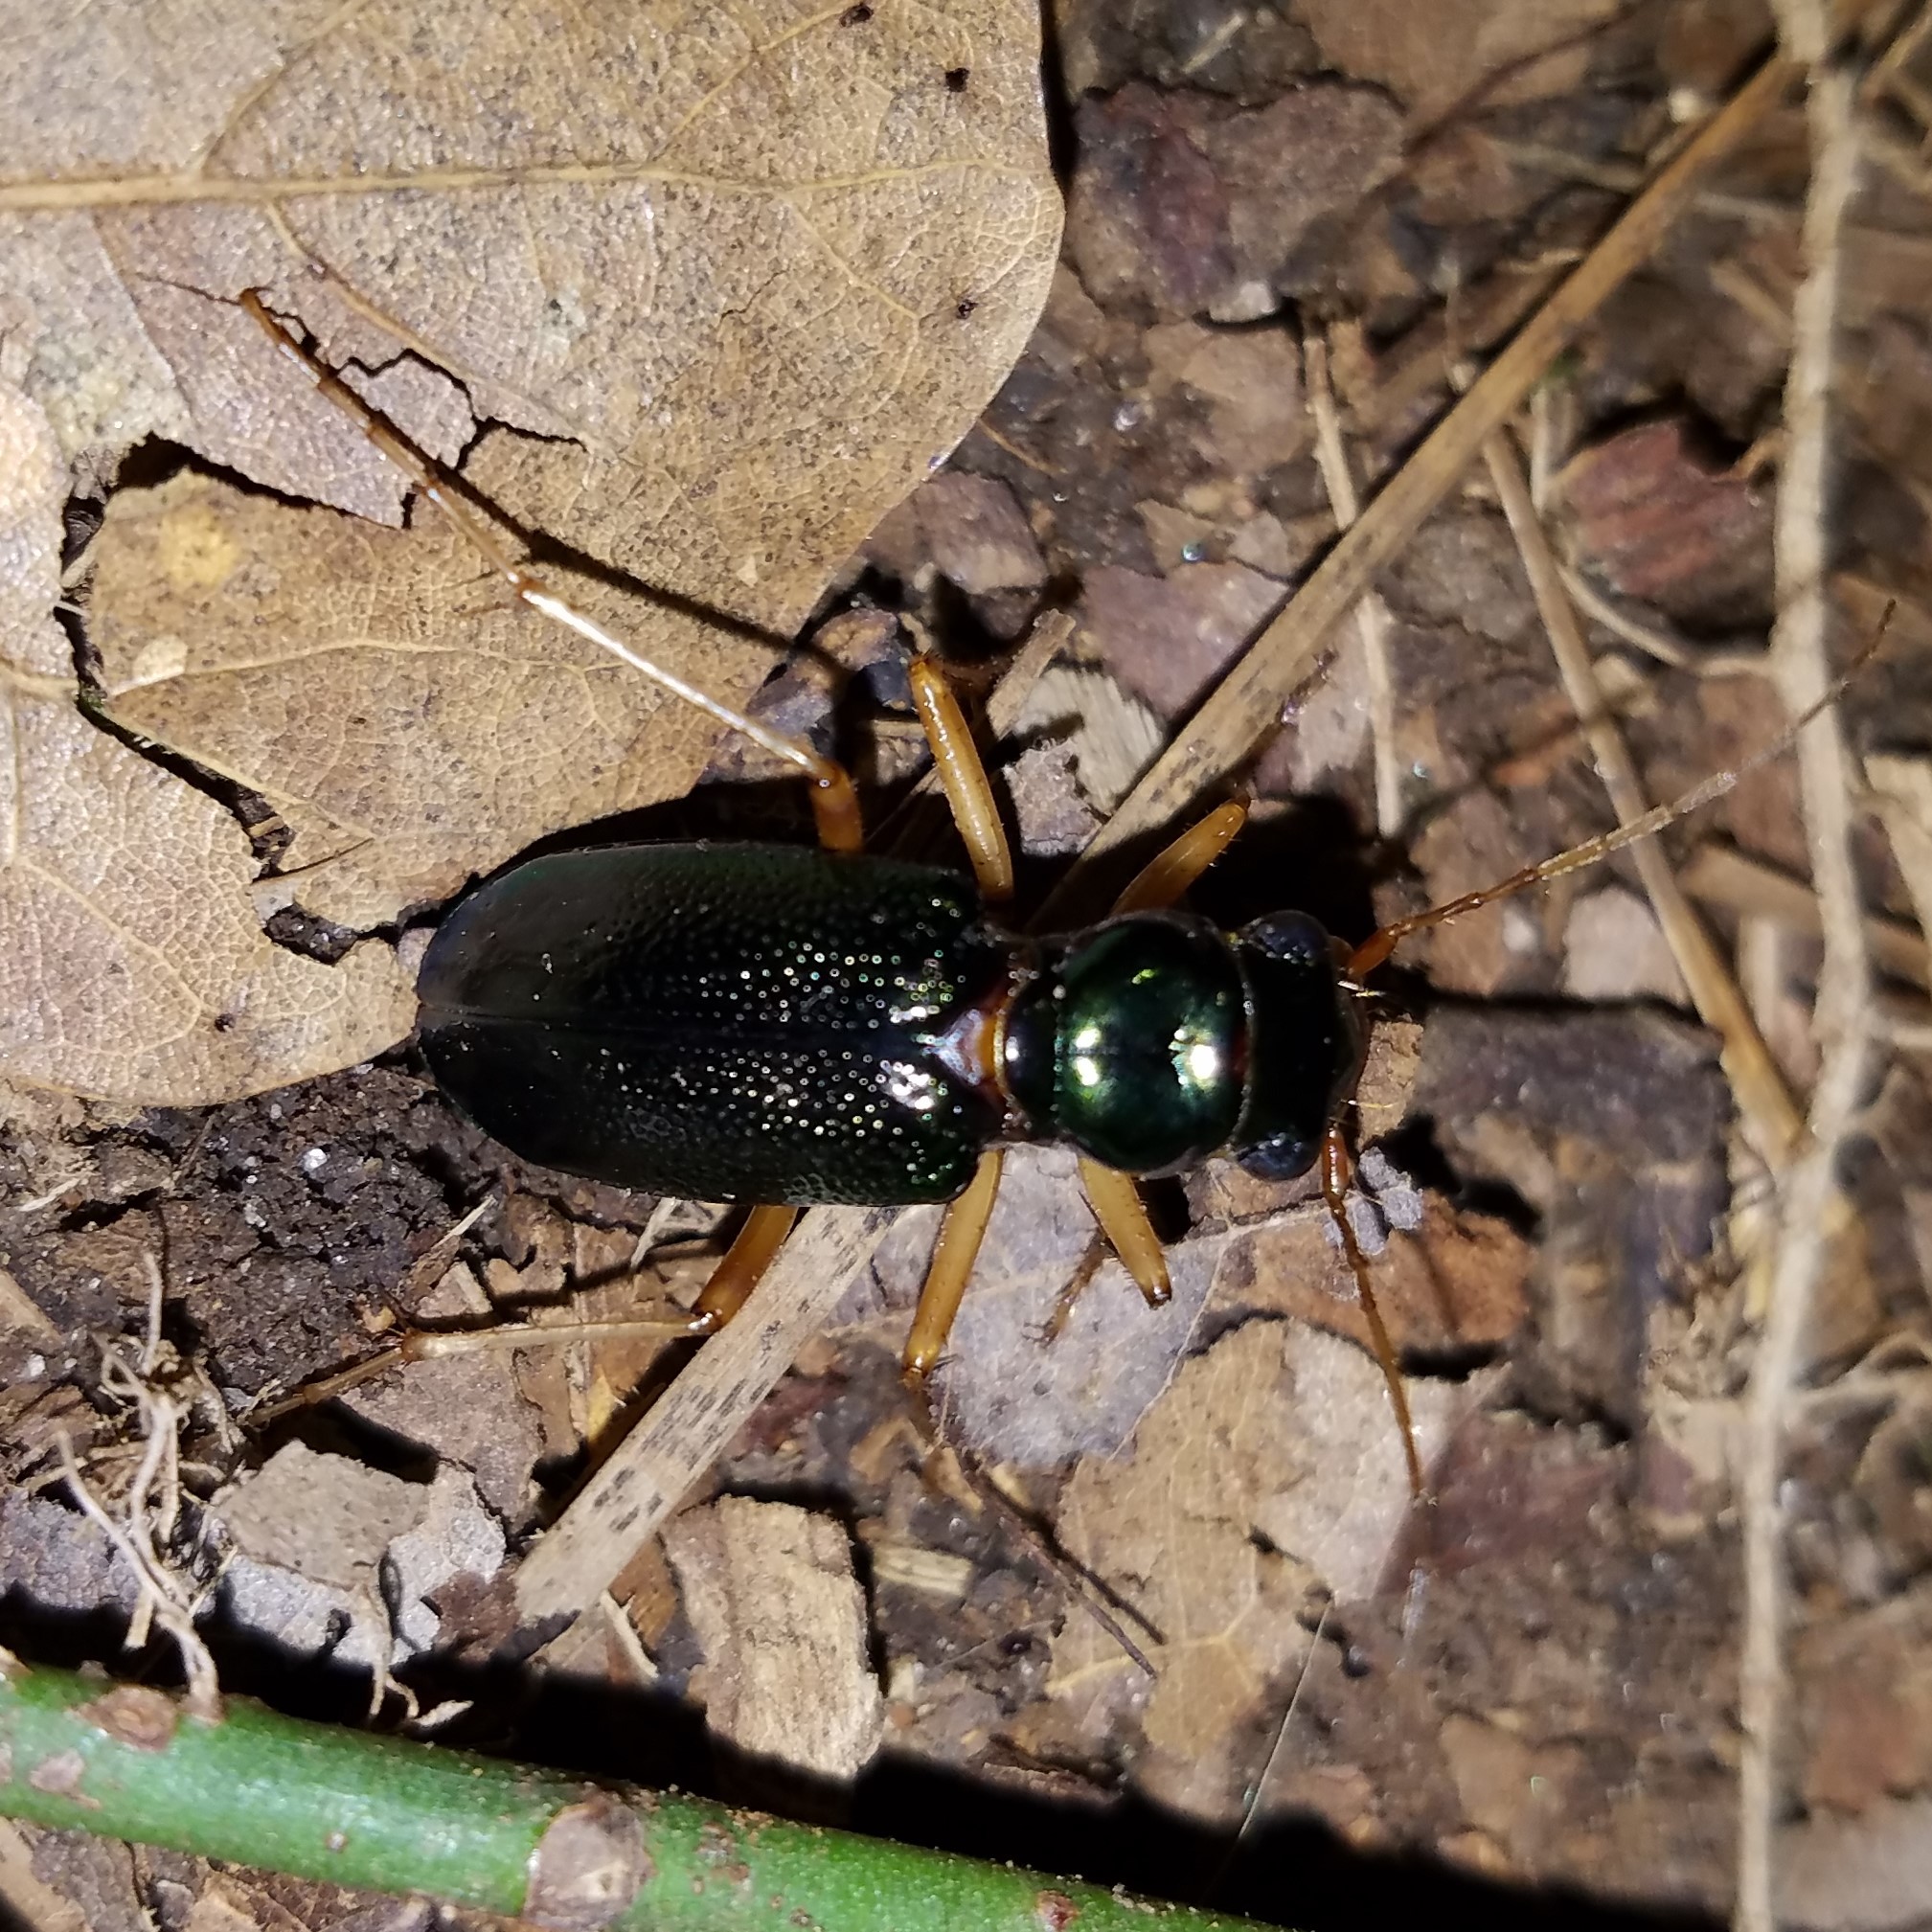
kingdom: Animalia
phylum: Arthropoda
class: Insecta
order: Coleoptera
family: Carabidae
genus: Tetracha
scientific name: Tetracha virginica
